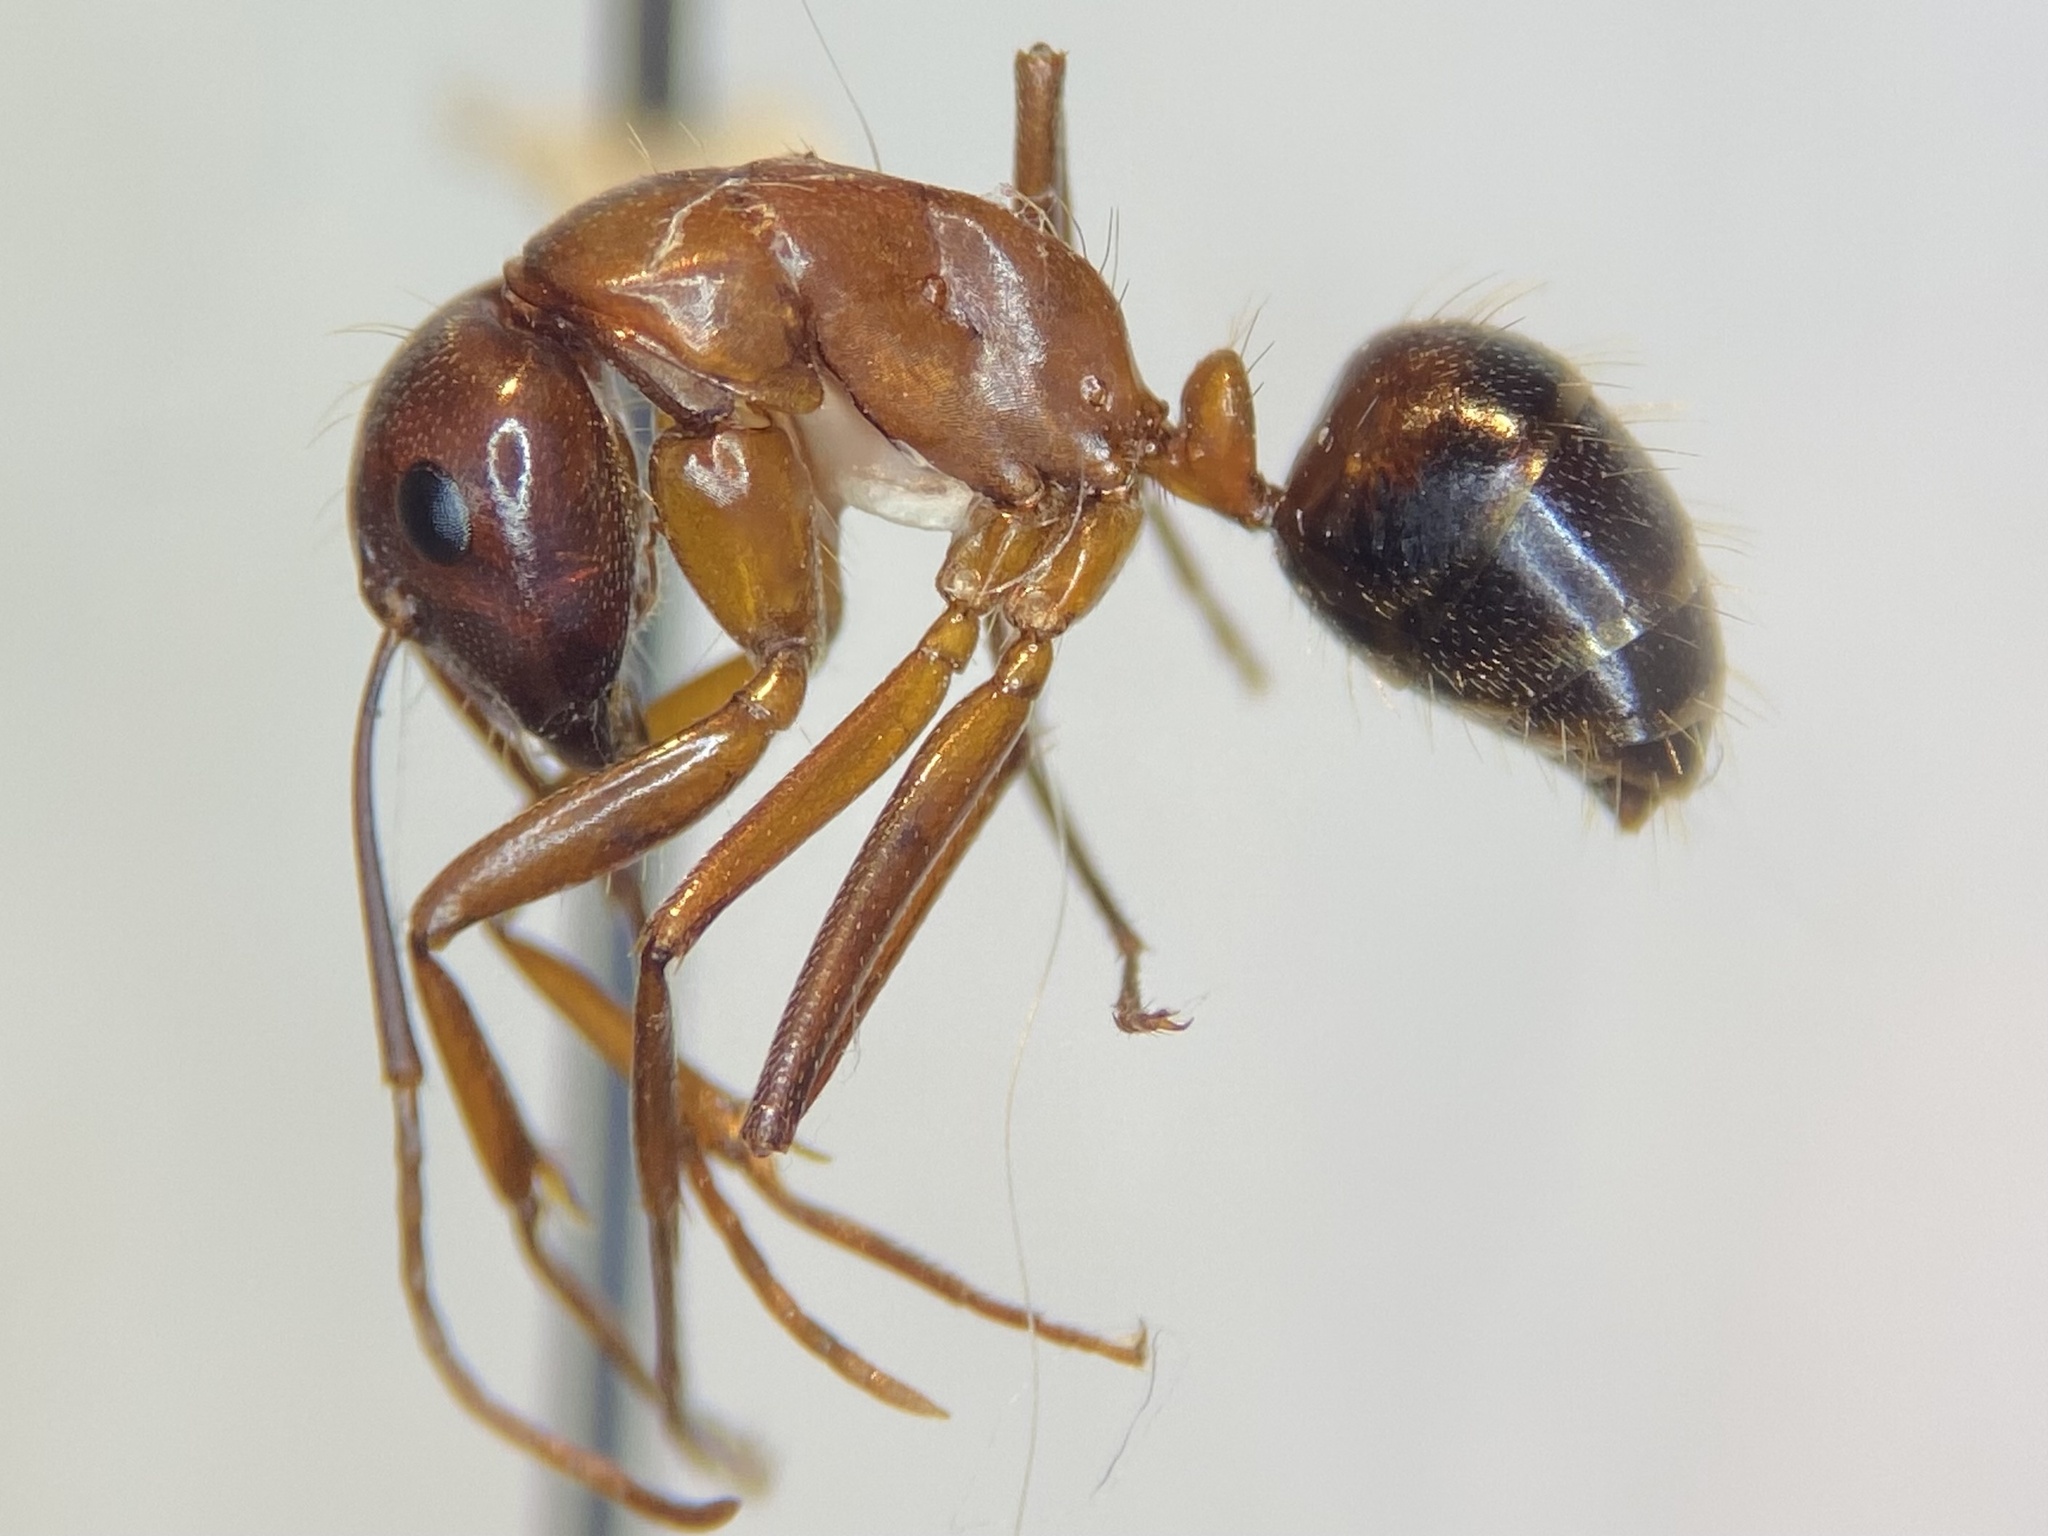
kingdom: Animalia
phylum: Arthropoda
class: Insecta
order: Hymenoptera
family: Formicidae
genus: Camponotus
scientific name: Camponotus
